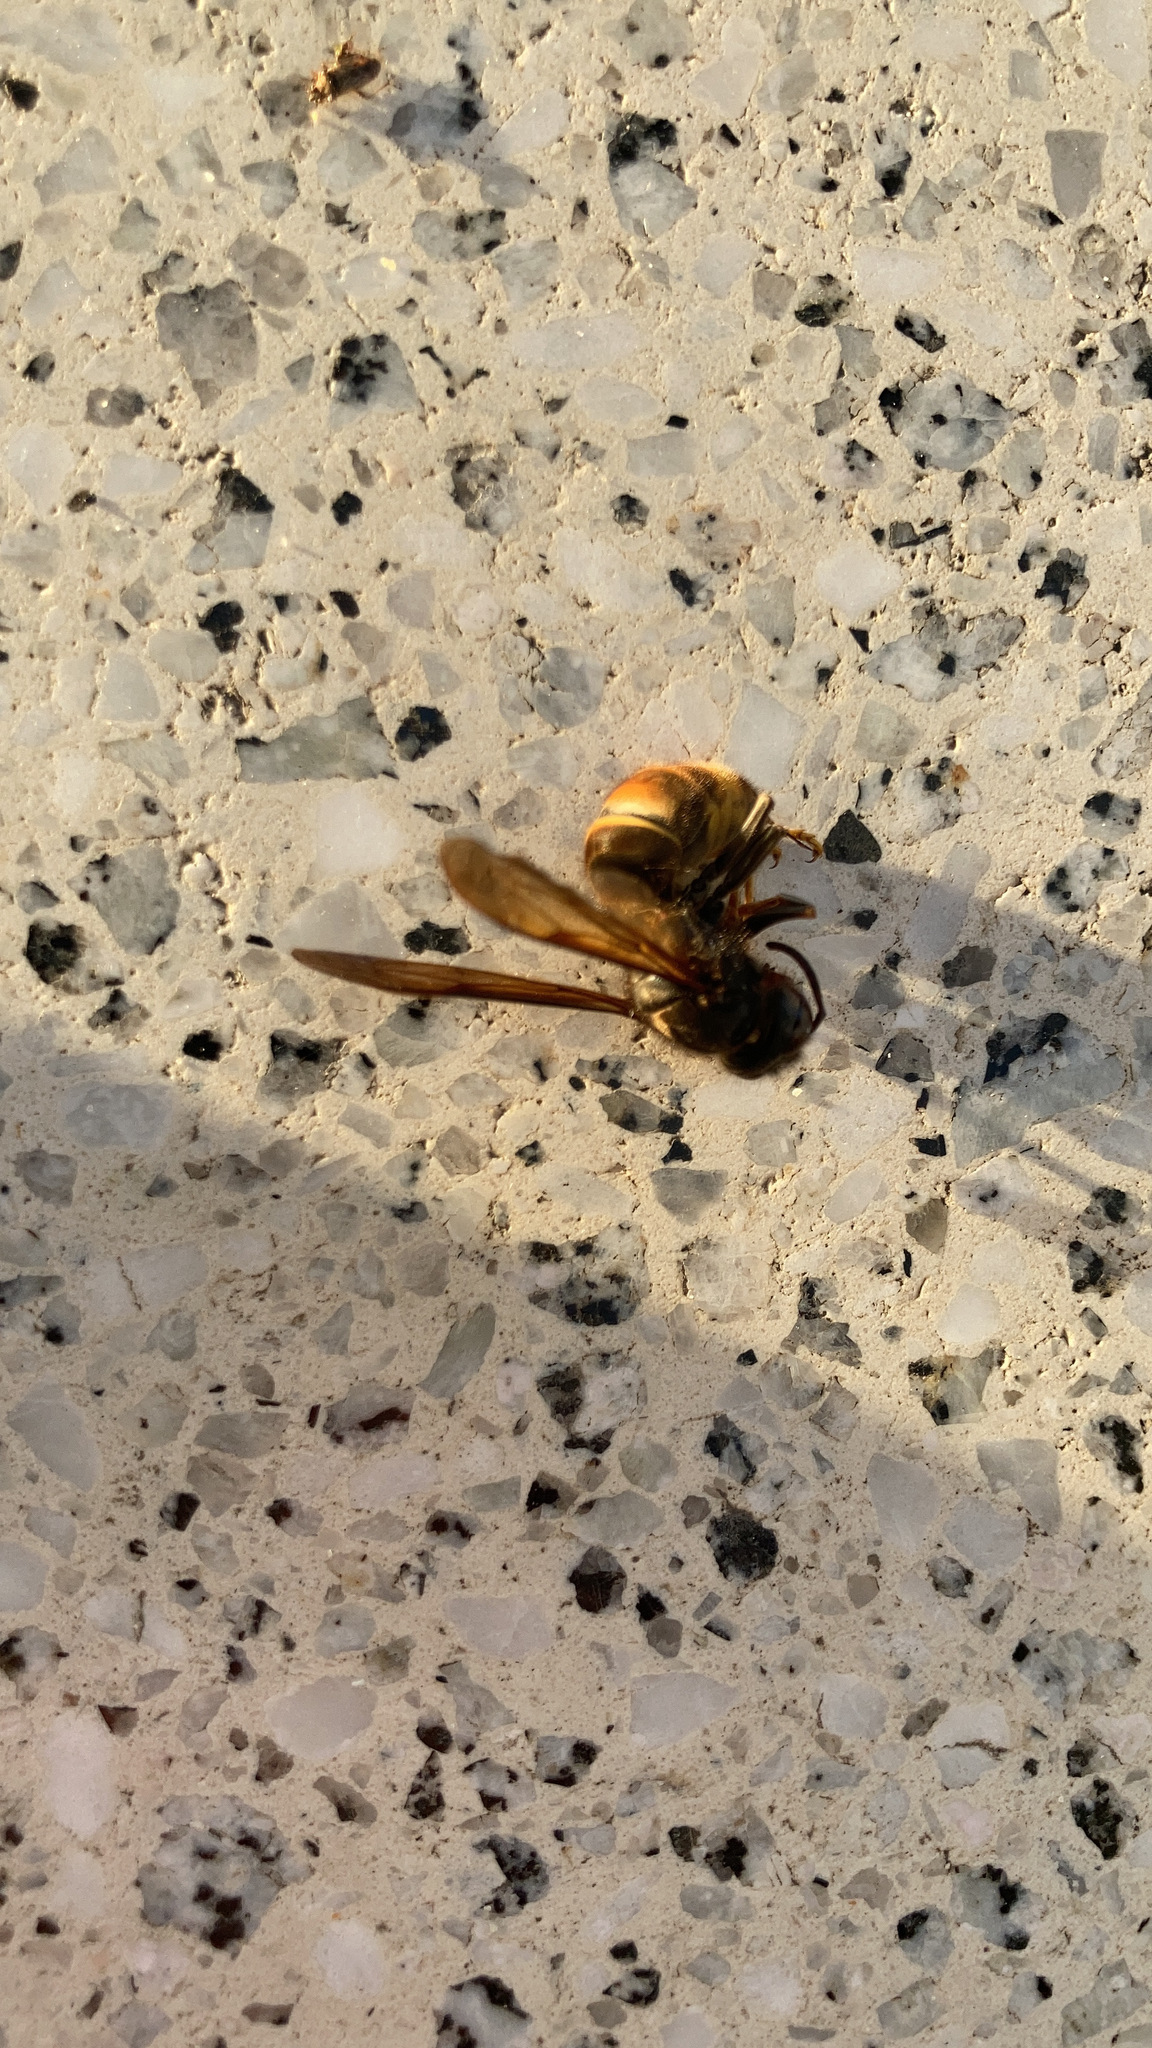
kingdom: Animalia
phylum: Arthropoda
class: Insecta
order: Hymenoptera
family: Vespidae
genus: Vespa
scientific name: Vespa velutina
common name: Asian hornet
